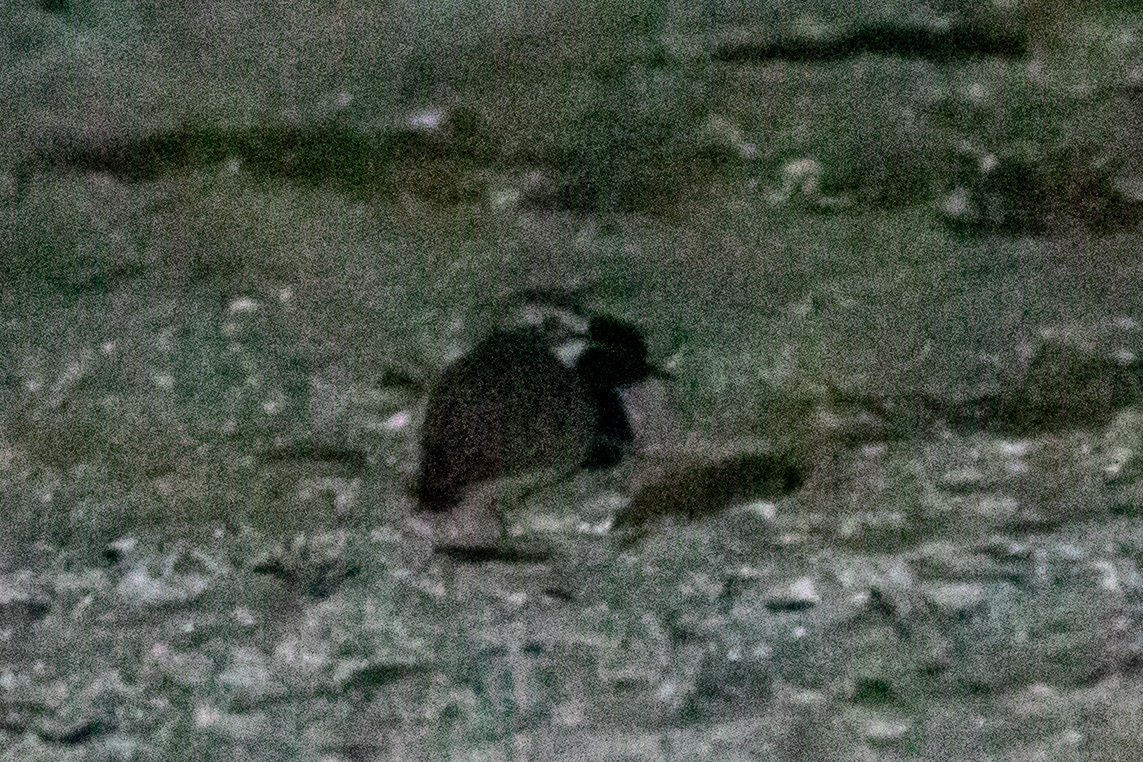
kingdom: Animalia
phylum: Chordata
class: Aves
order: Charadriiformes
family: Charadriidae
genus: Anarhynchus
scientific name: Anarhynchus
